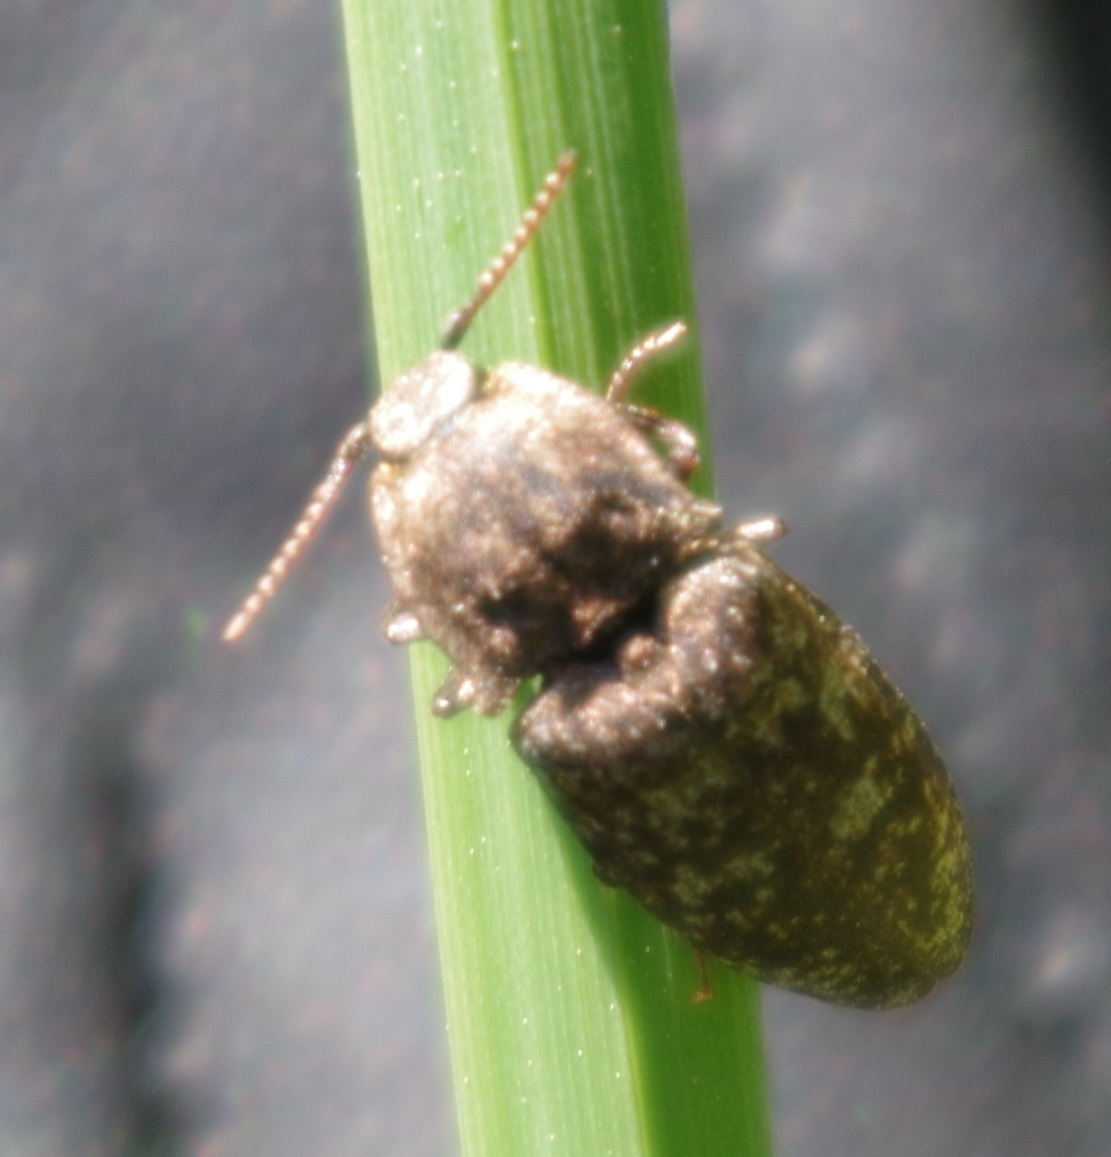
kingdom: Animalia
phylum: Arthropoda
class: Insecta
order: Coleoptera
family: Elateridae
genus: Agrypnus
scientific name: Agrypnus murinus
